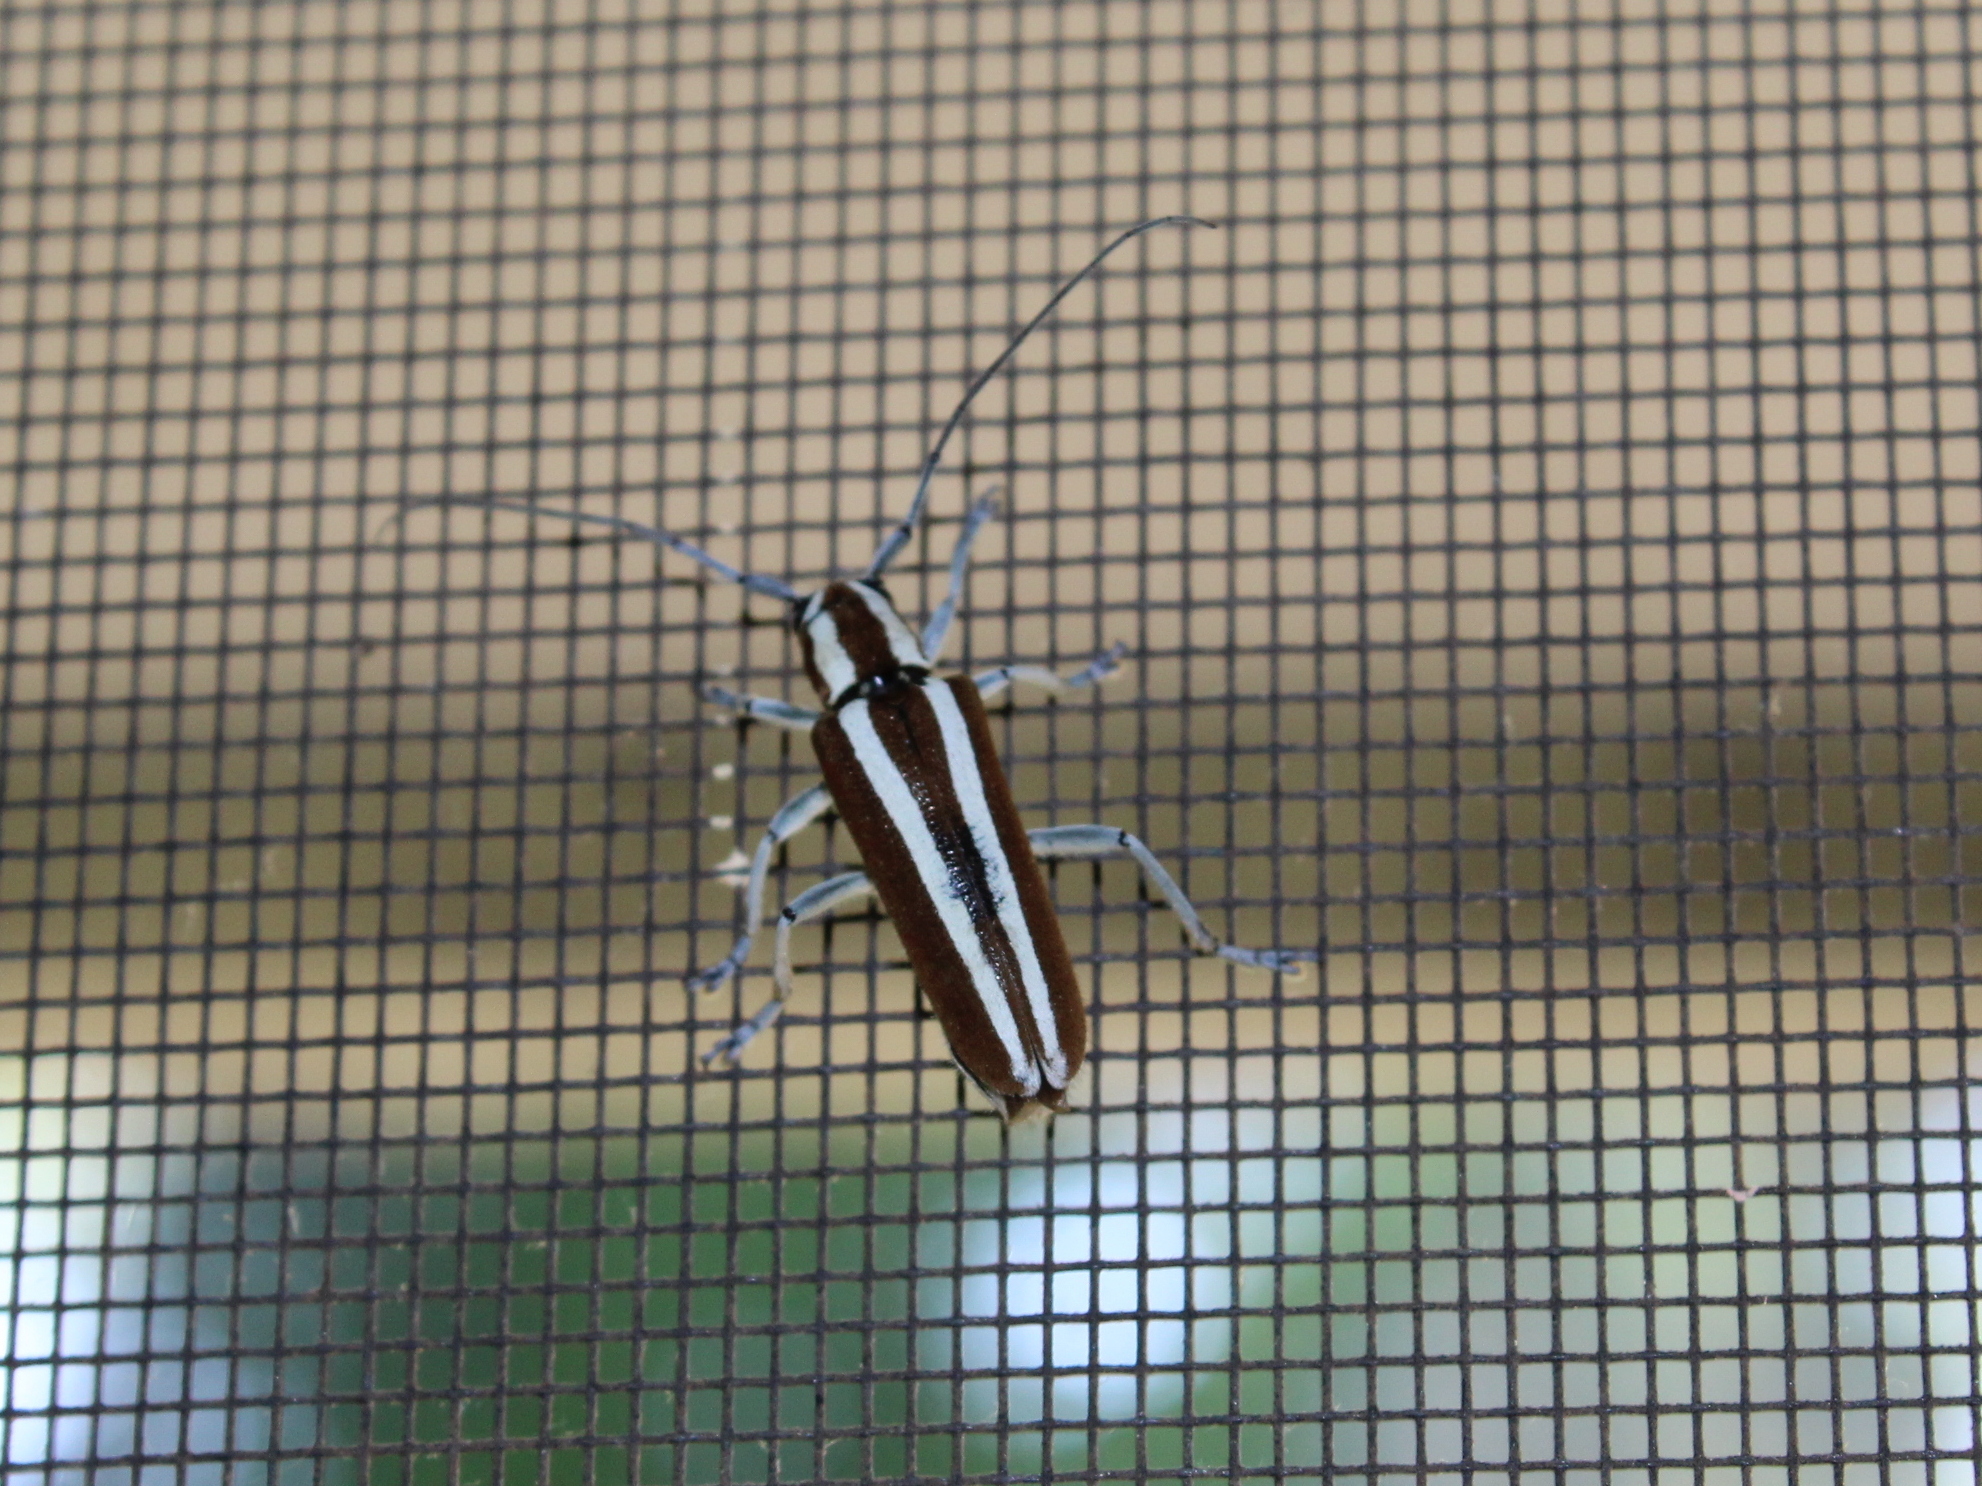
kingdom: Animalia
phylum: Arthropoda
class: Insecta
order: Coleoptera
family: Cerambycidae
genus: Saperda
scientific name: Saperda candida
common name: Round-headed borer
